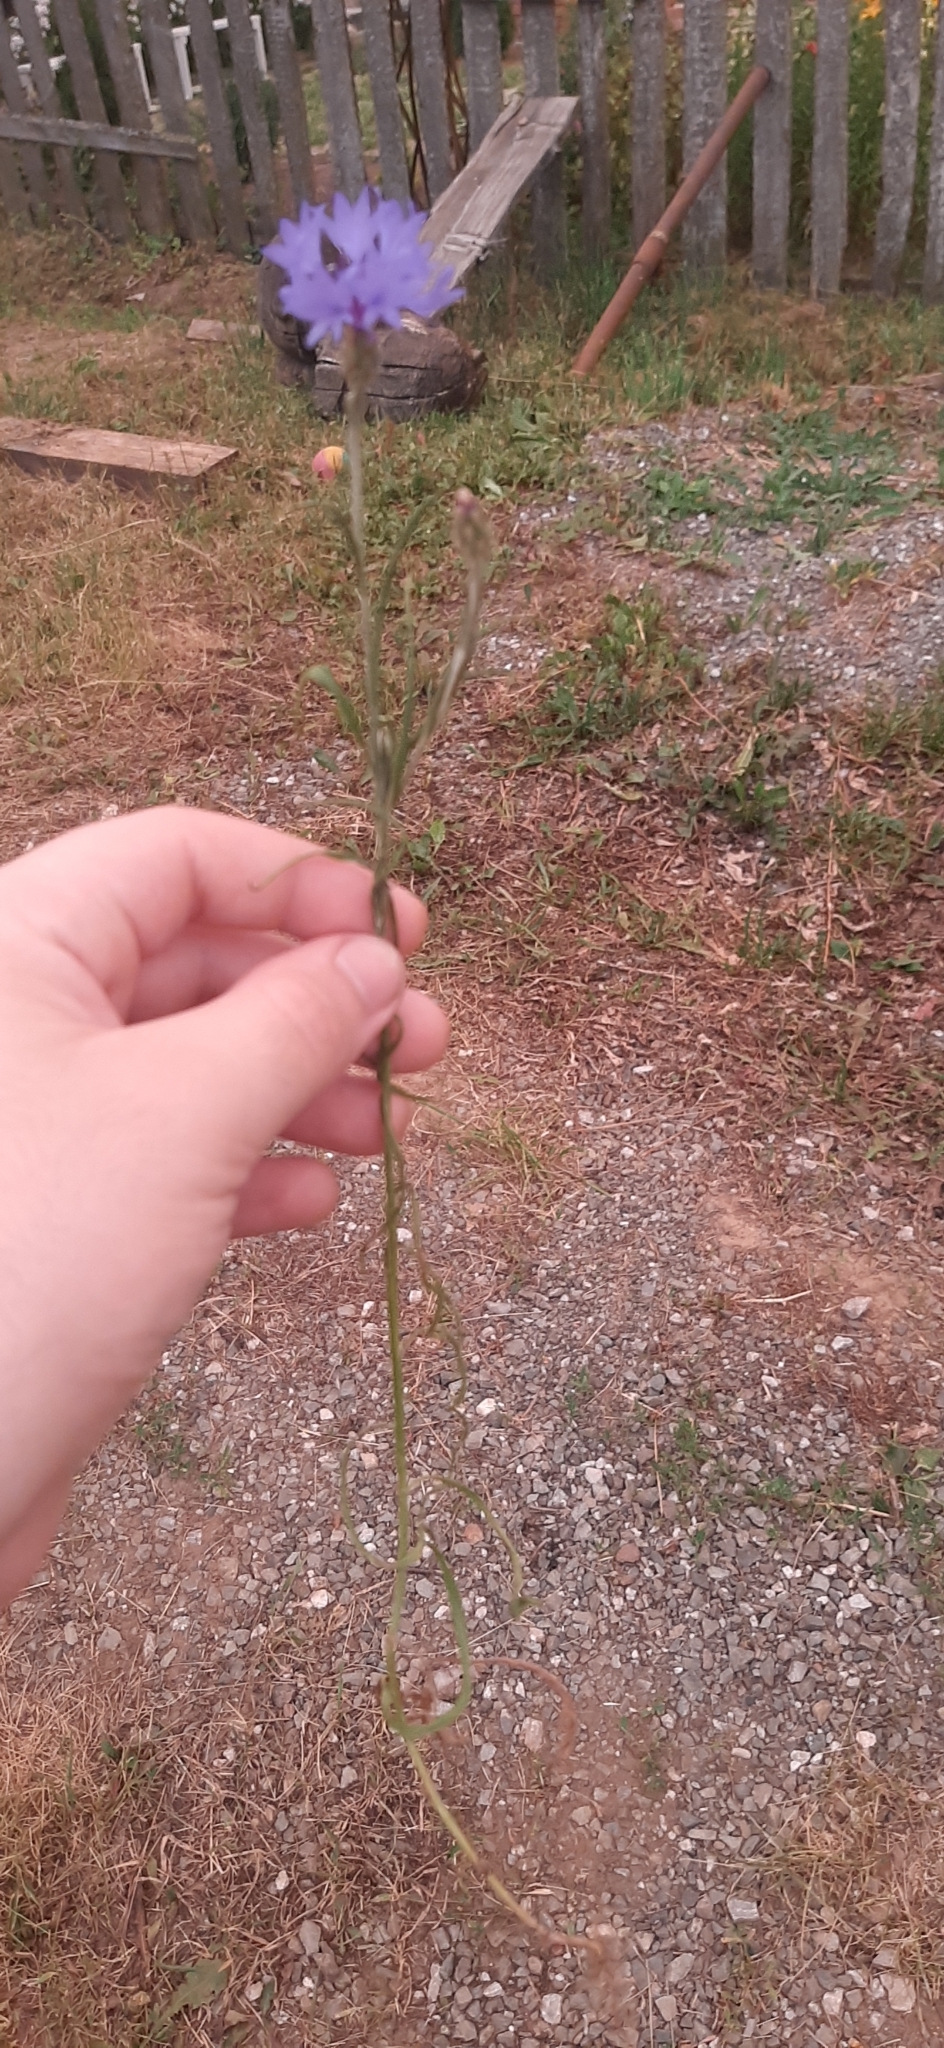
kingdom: Plantae
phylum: Tracheophyta
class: Magnoliopsida
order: Asterales
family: Asteraceae
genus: Centaurea
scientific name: Centaurea cyanus
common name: Cornflower
